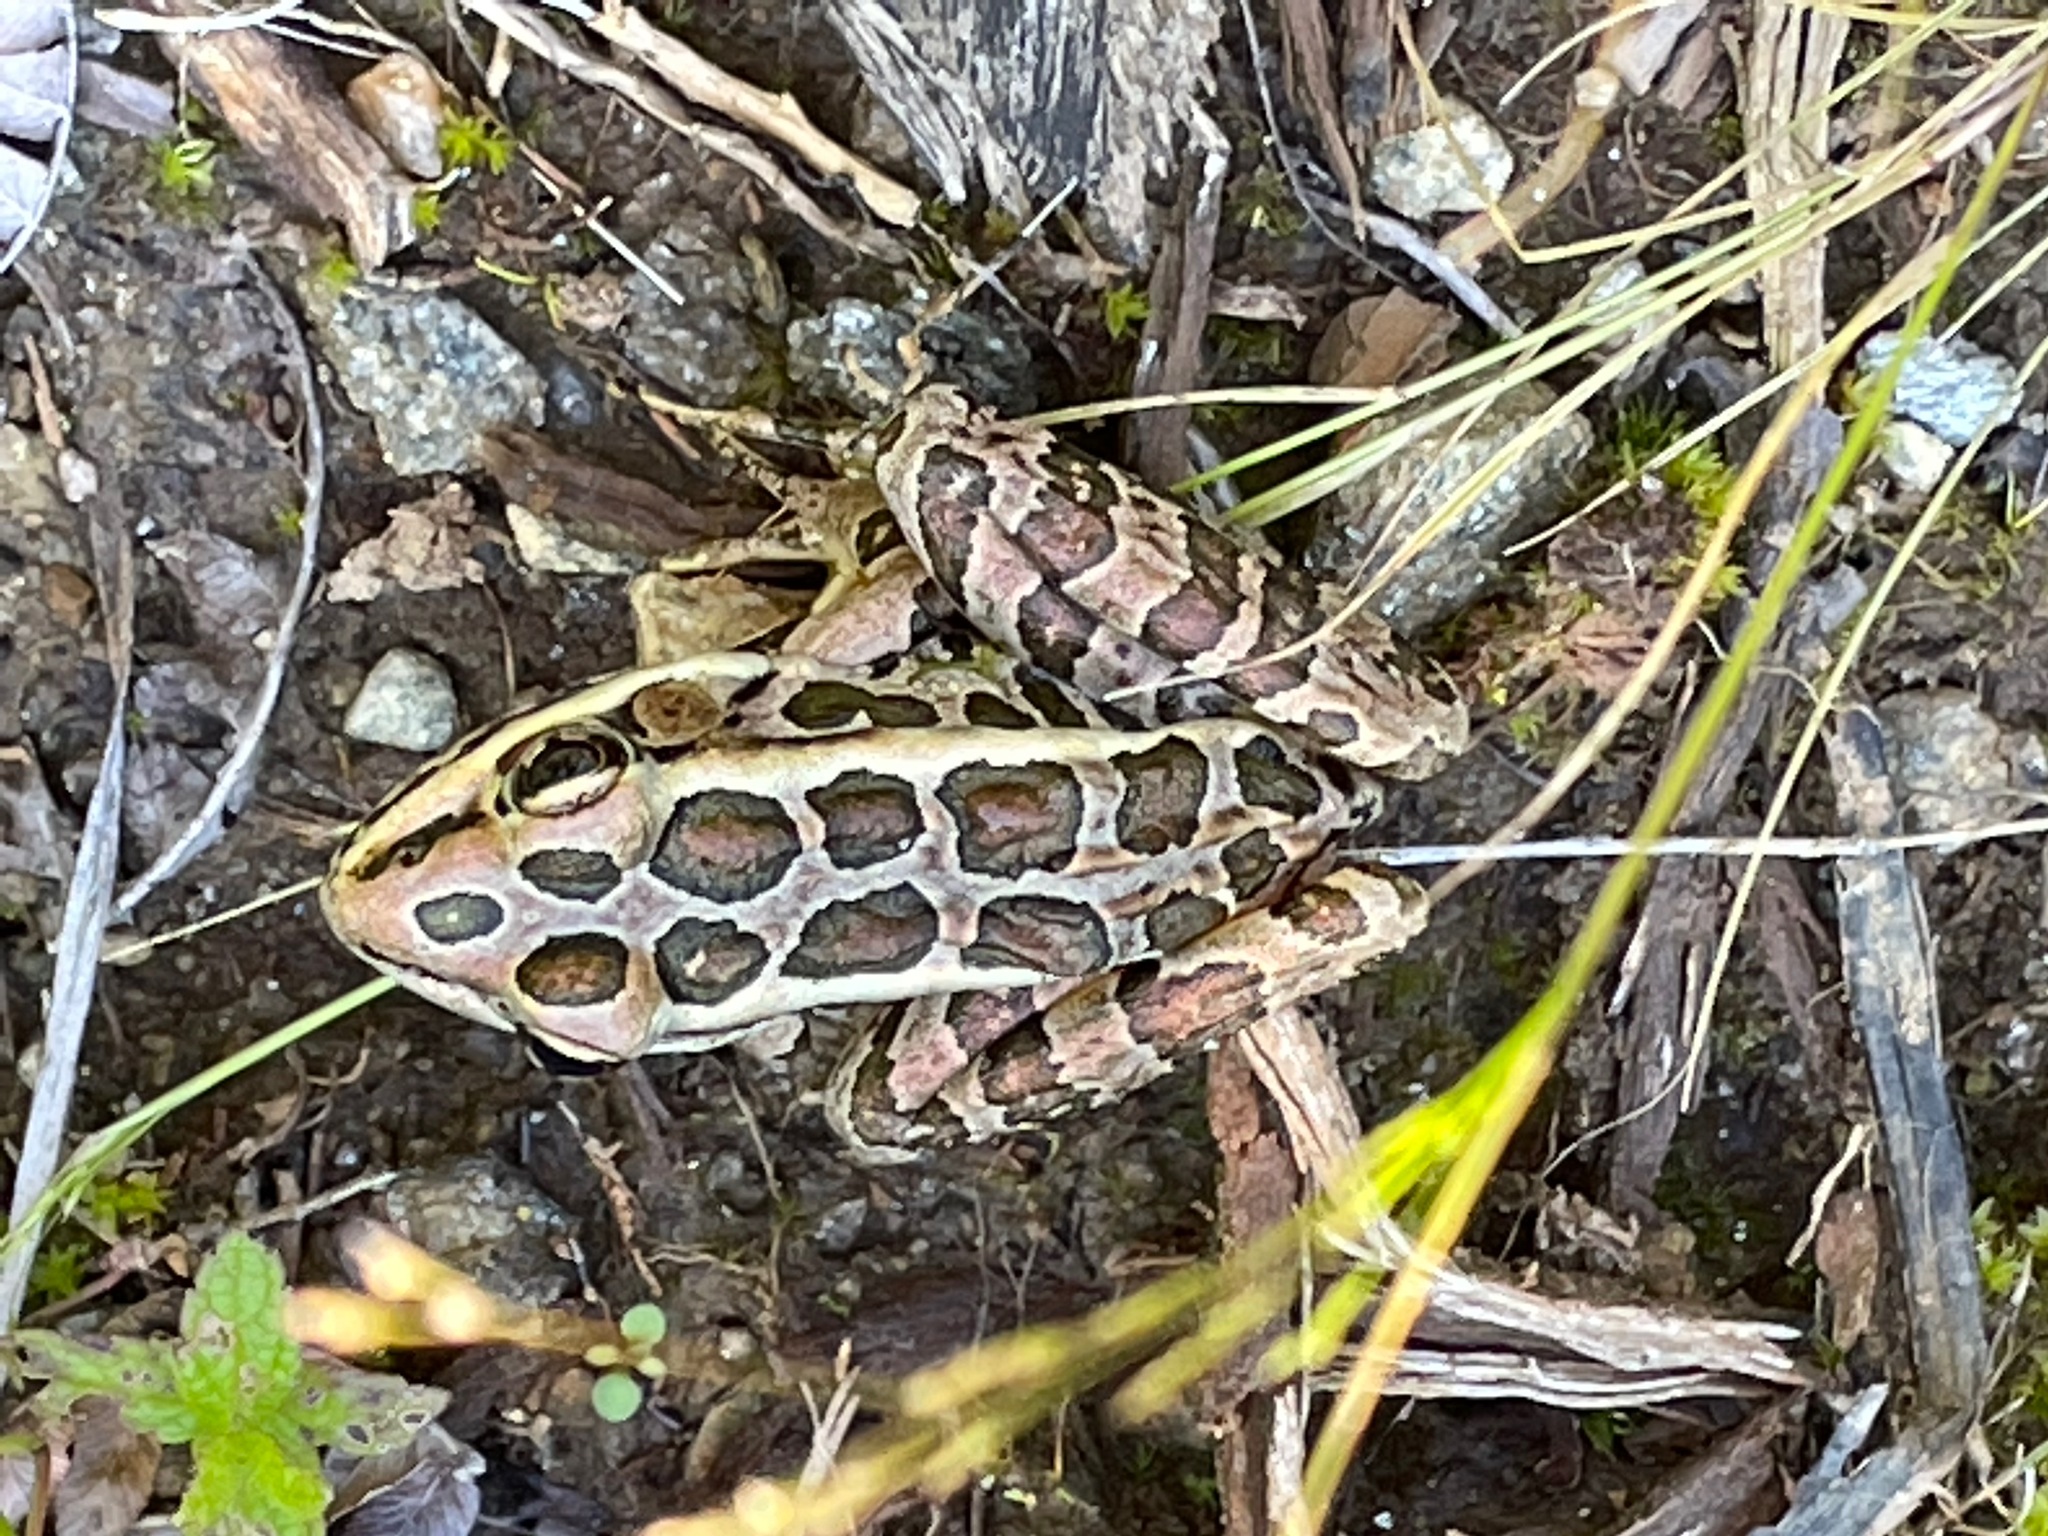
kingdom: Animalia
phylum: Chordata
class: Amphibia
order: Anura
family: Ranidae
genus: Lithobates
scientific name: Lithobates palustris
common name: Pickerel frog
